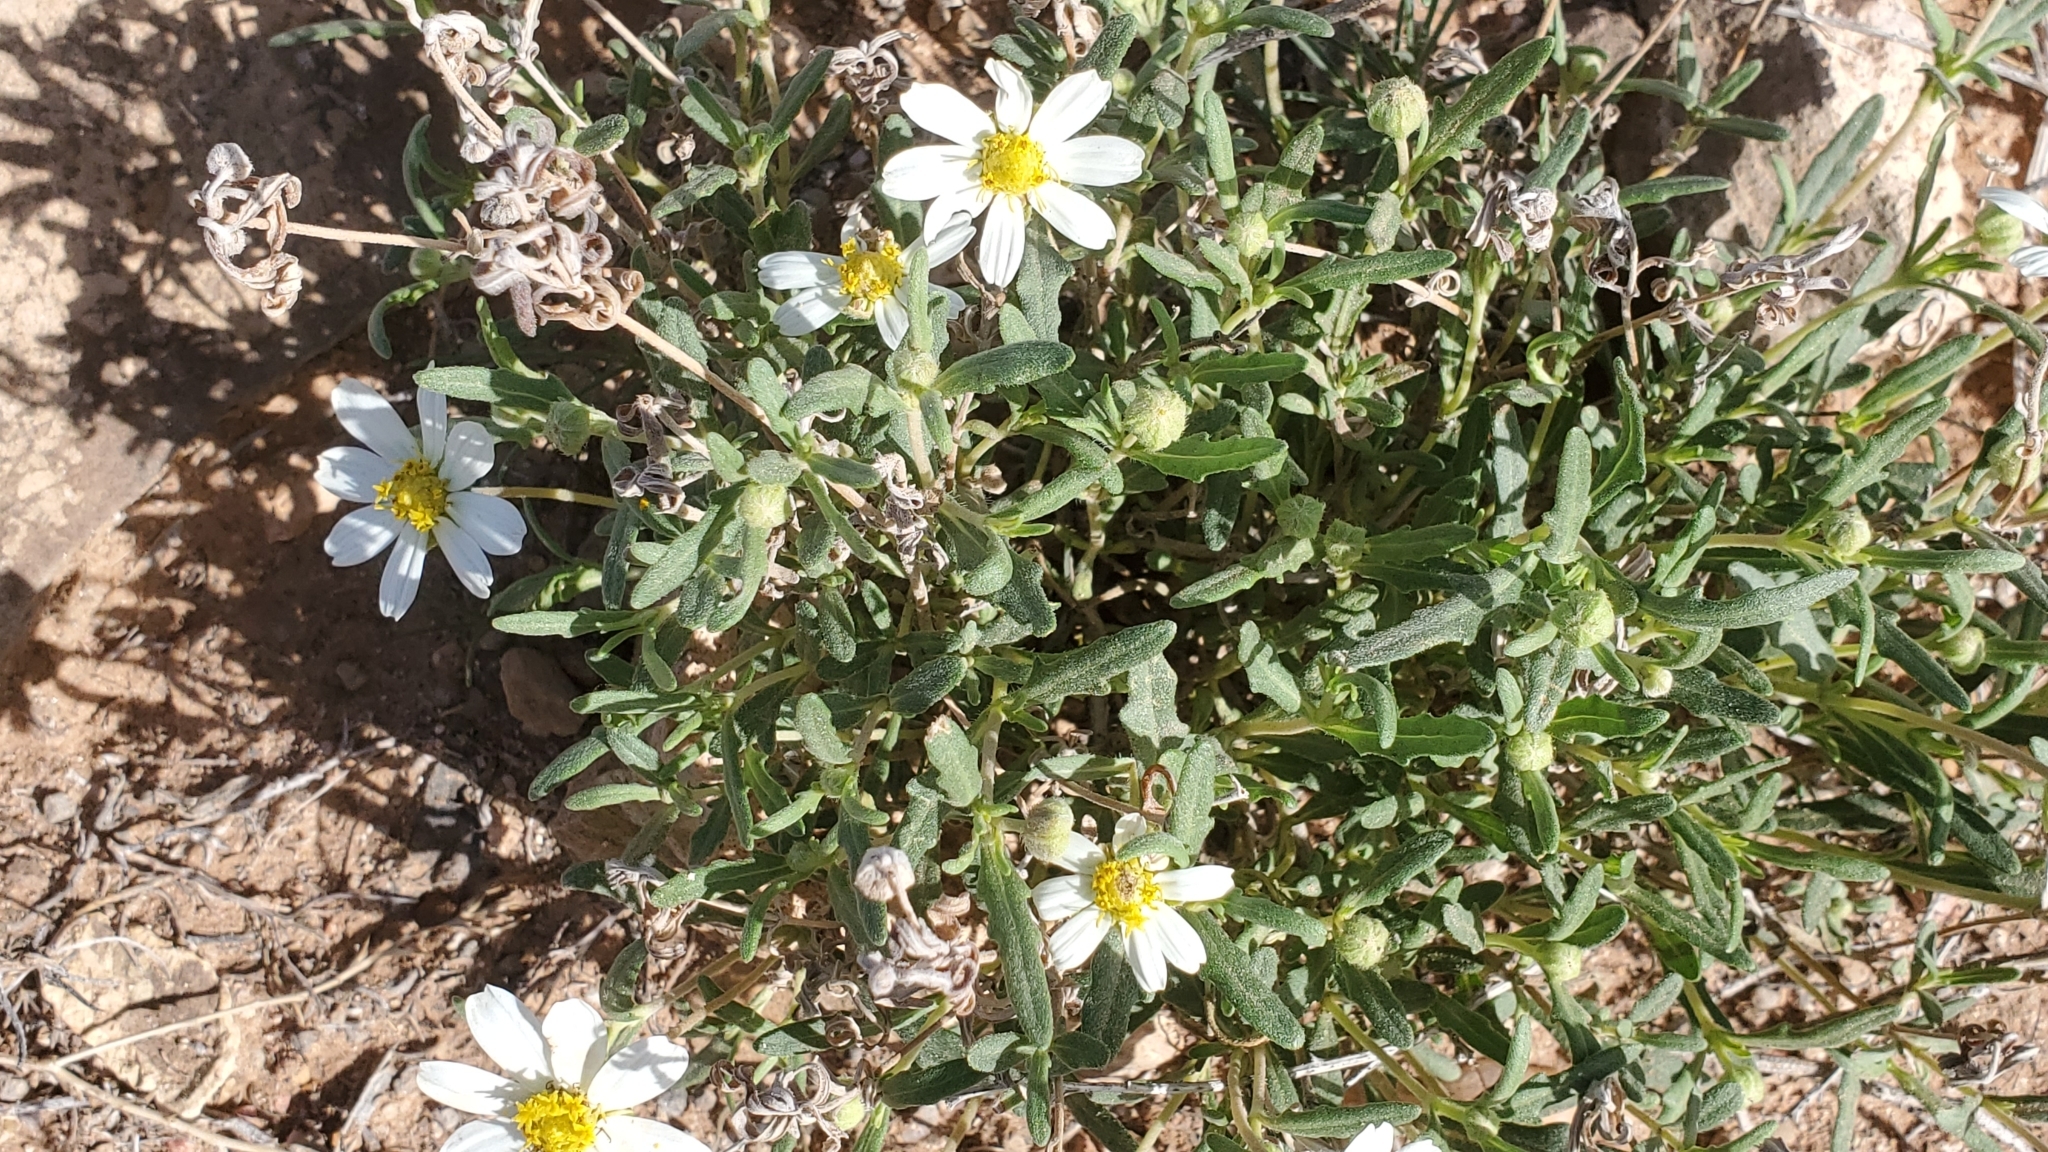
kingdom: Plantae
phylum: Tracheophyta
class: Magnoliopsida
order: Asterales
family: Asteraceae
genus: Melampodium
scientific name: Melampodium leucanthum
